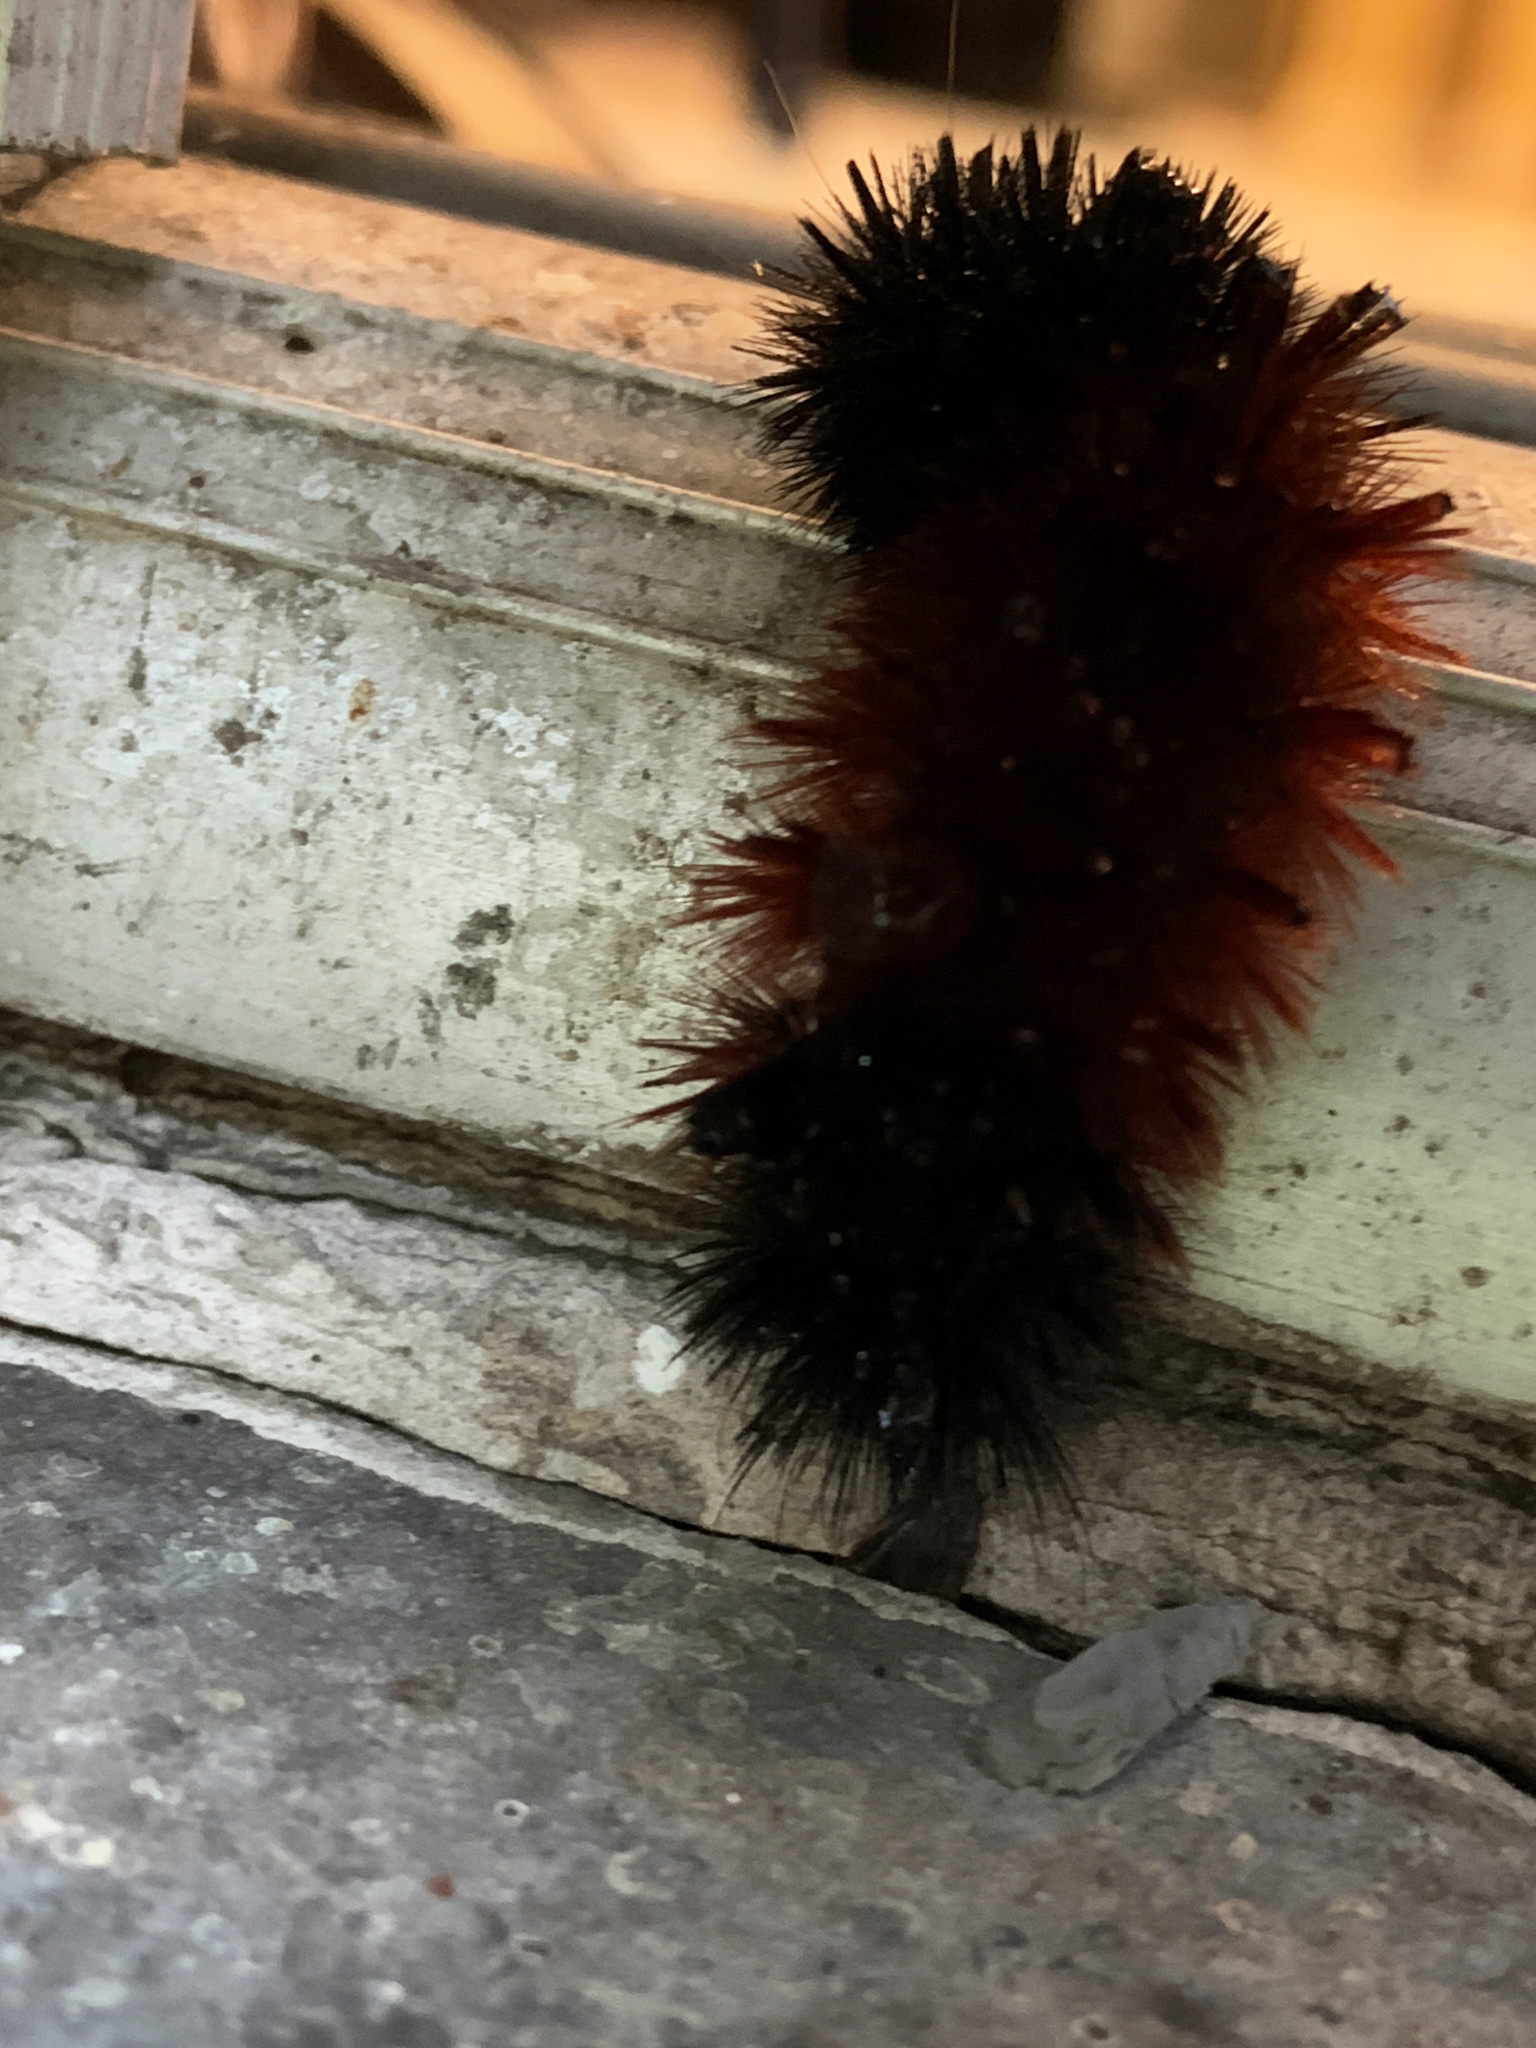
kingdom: Animalia
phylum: Arthropoda
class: Insecta
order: Lepidoptera
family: Erebidae
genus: Pyrrharctia
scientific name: Pyrrharctia isabella
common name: Isabella tiger moth
